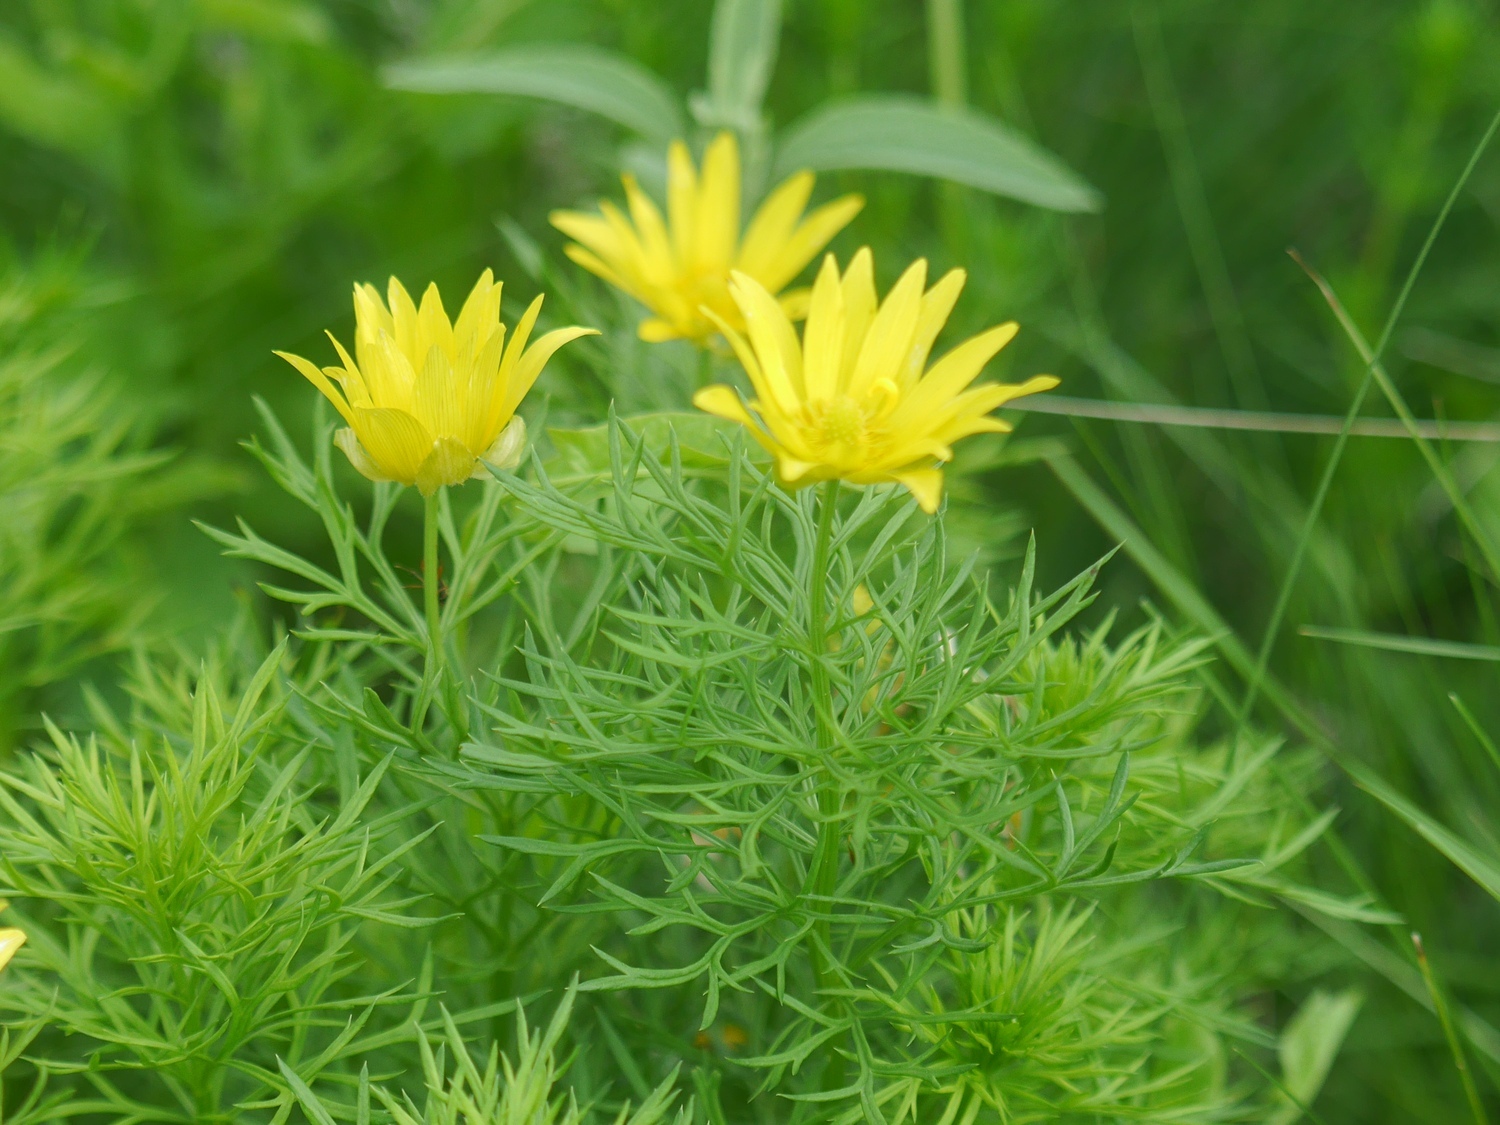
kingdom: Plantae
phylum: Tracheophyta
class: Magnoliopsida
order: Ranunculales
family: Ranunculaceae
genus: Adonis
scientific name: Adonis volgensis
